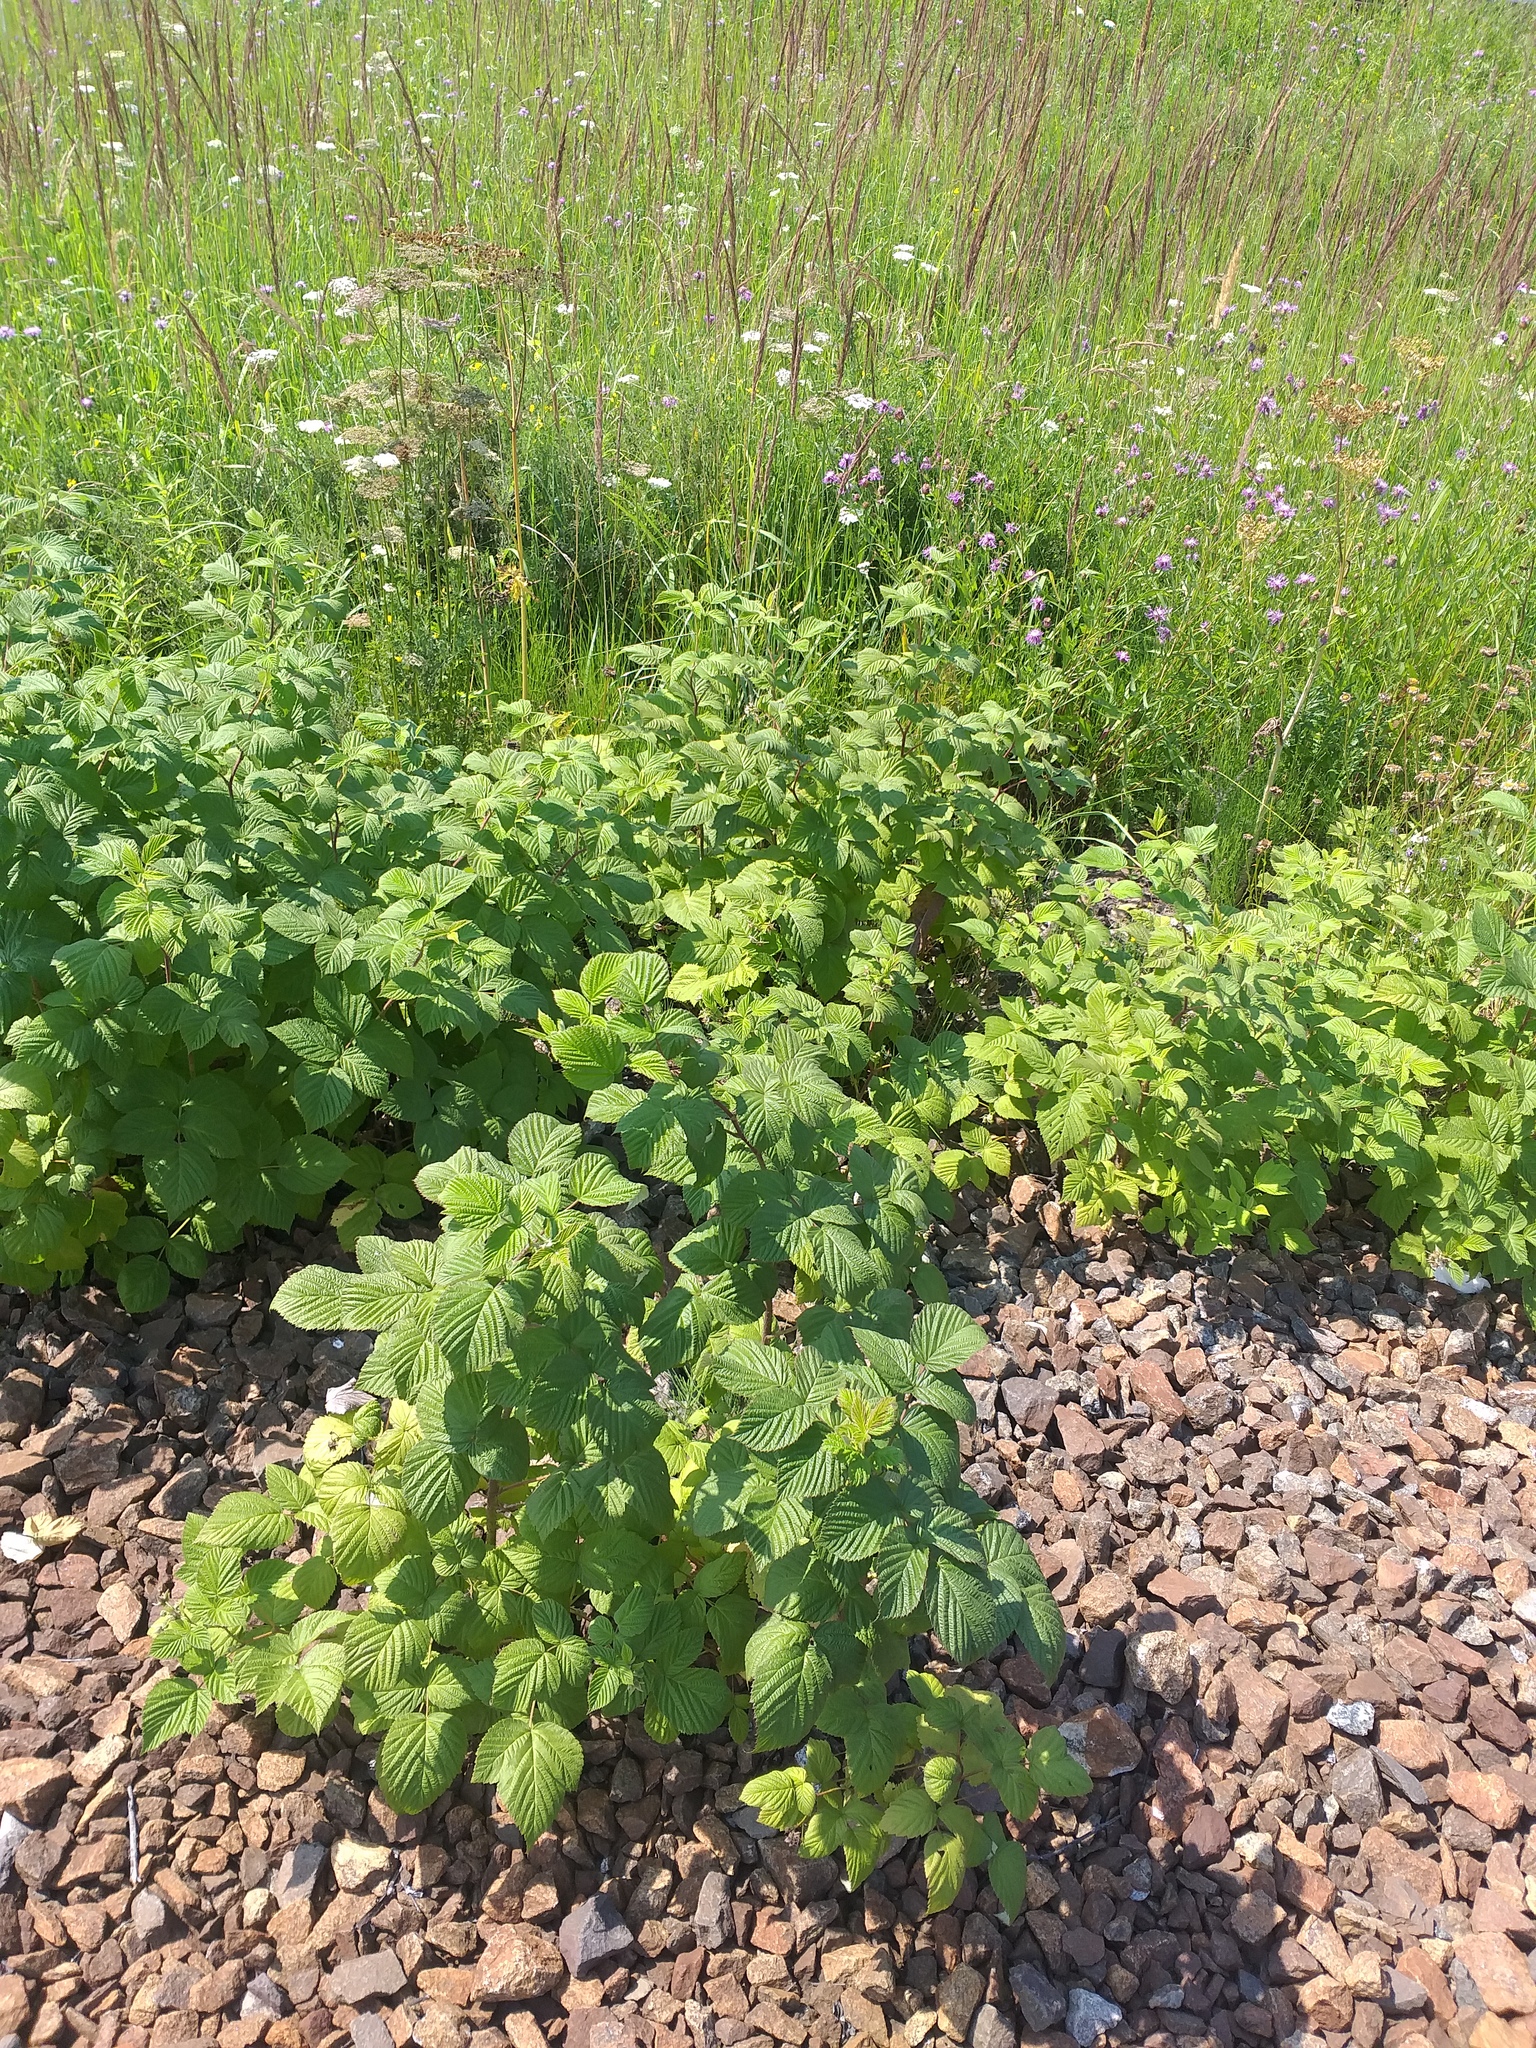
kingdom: Plantae
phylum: Tracheophyta
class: Magnoliopsida
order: Rosales
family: Rosaceae
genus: Rubus
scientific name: Rubus idaeus
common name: Raspberry
